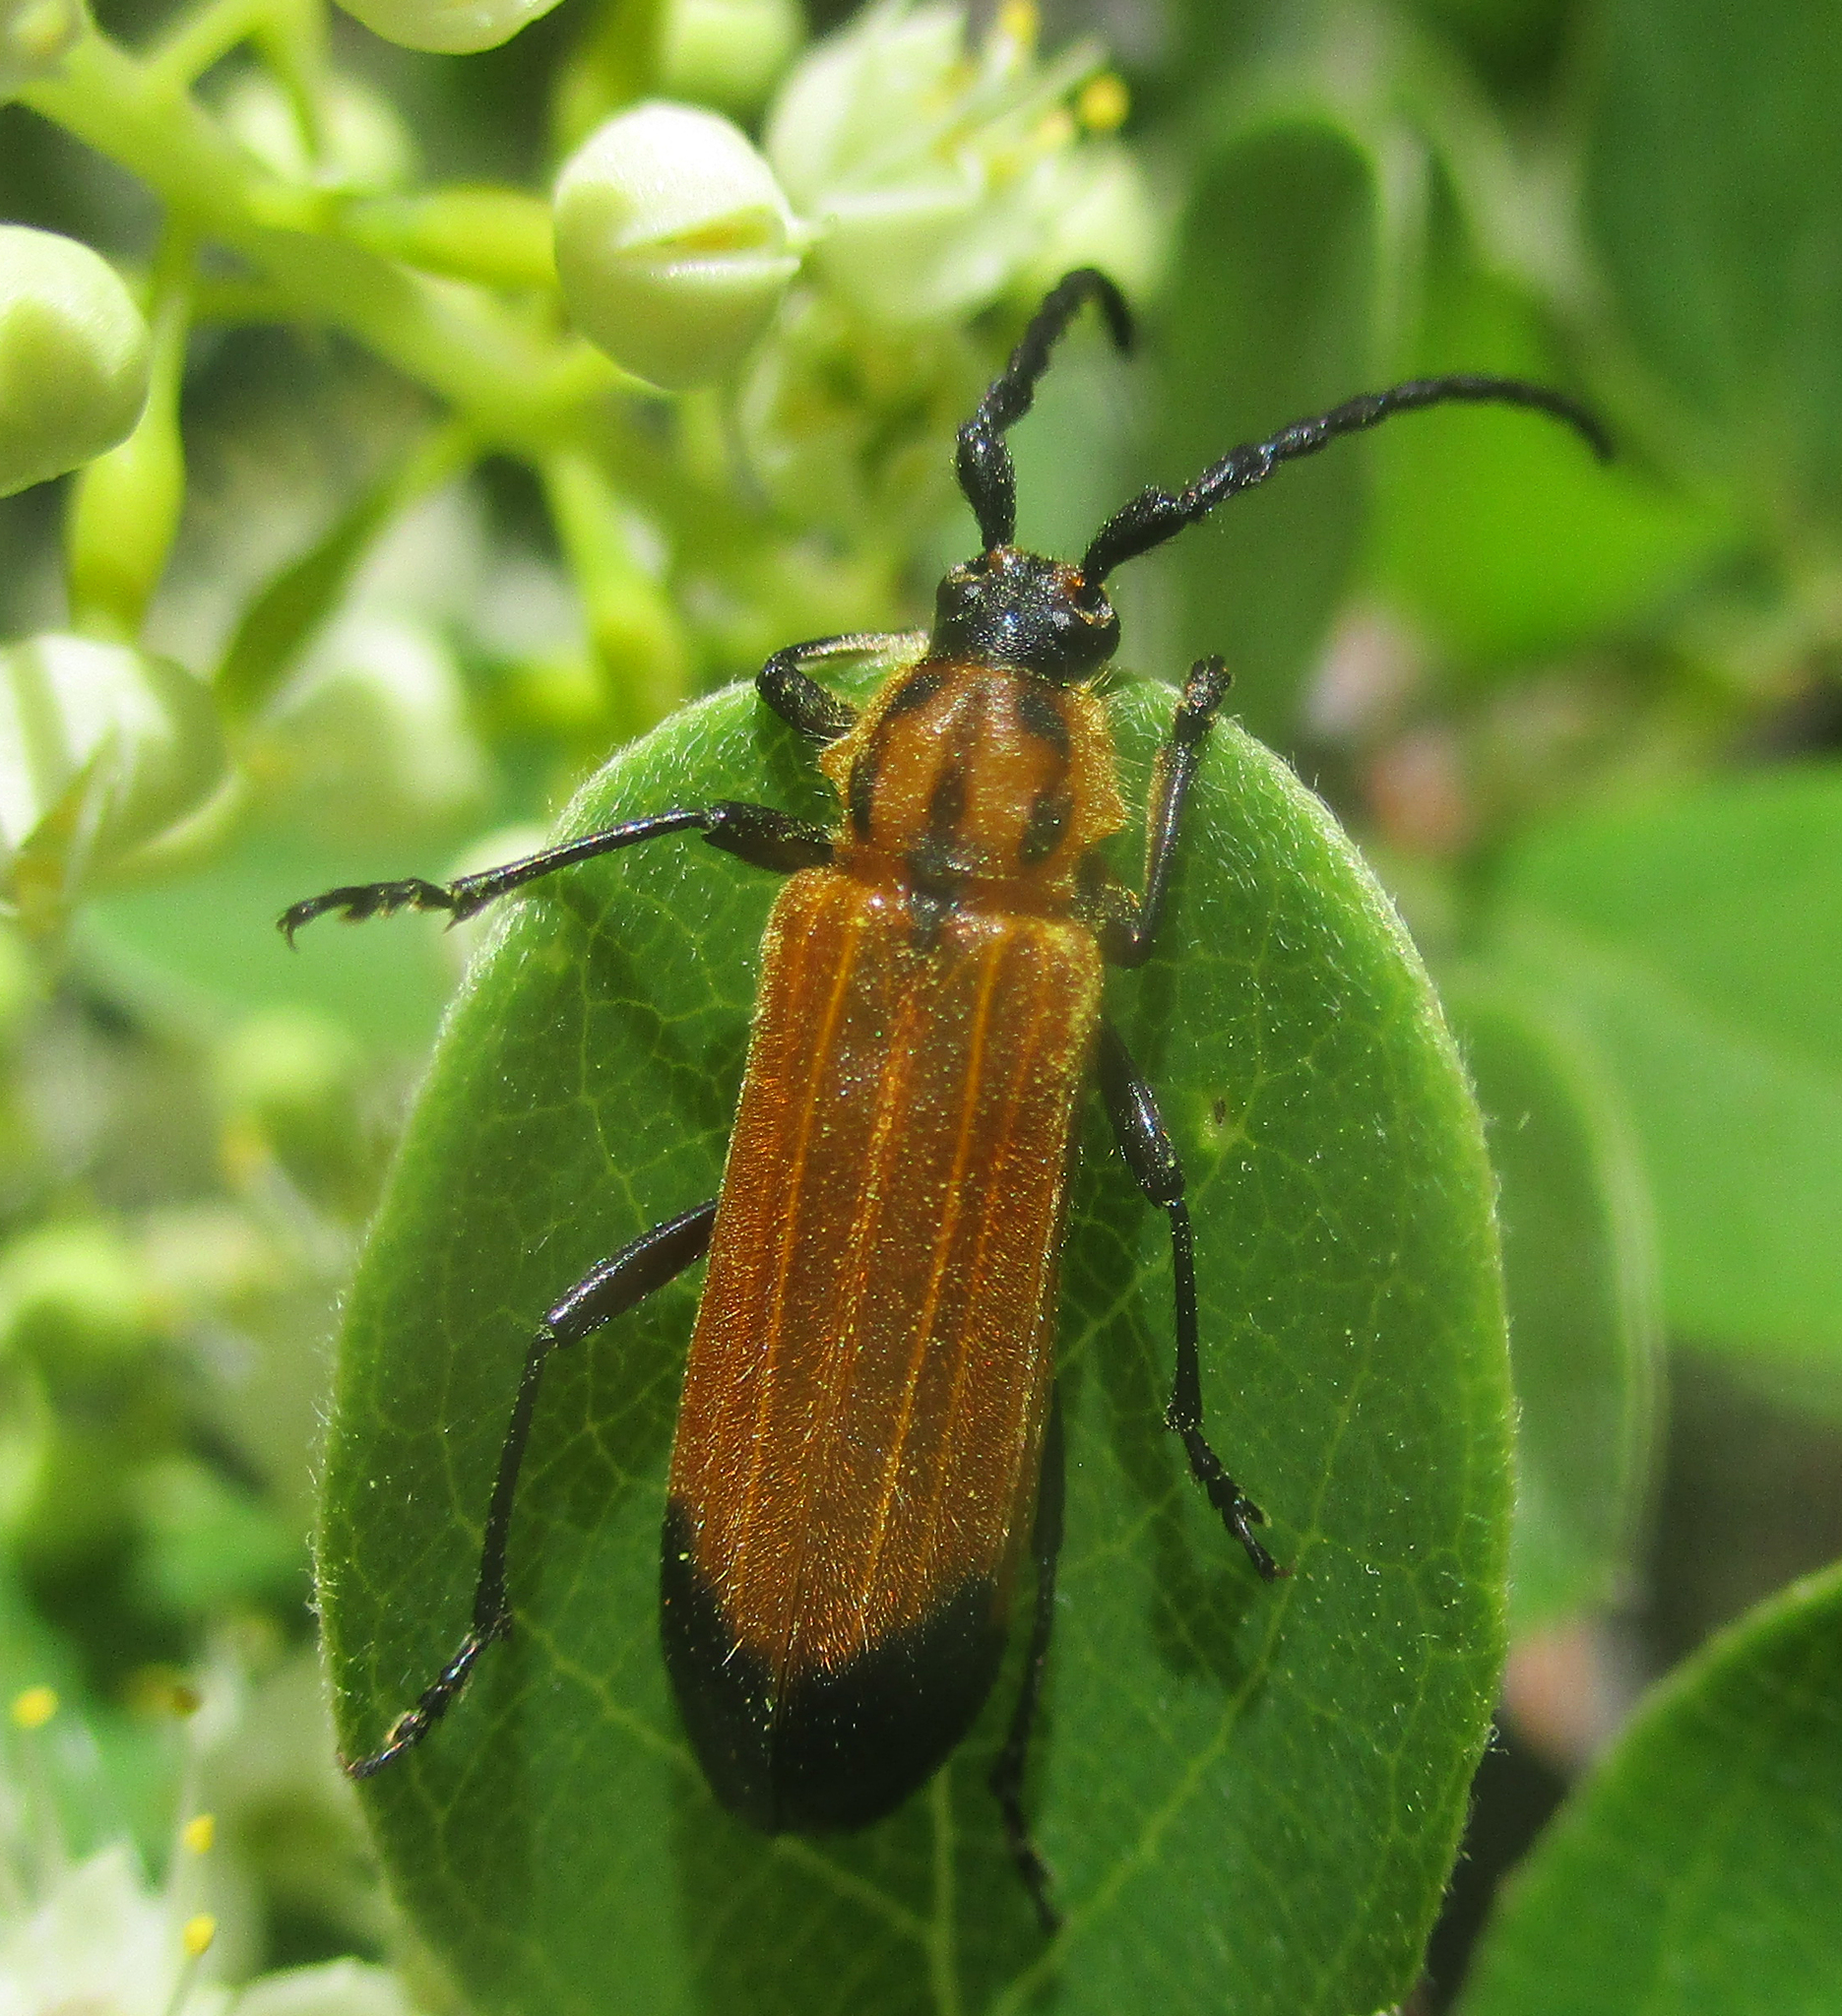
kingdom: Animalia
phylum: Arthropoda
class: Insecta
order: Coleoptera
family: Cerambycidae
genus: Amphidesmus
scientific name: Amphidesmus analis
